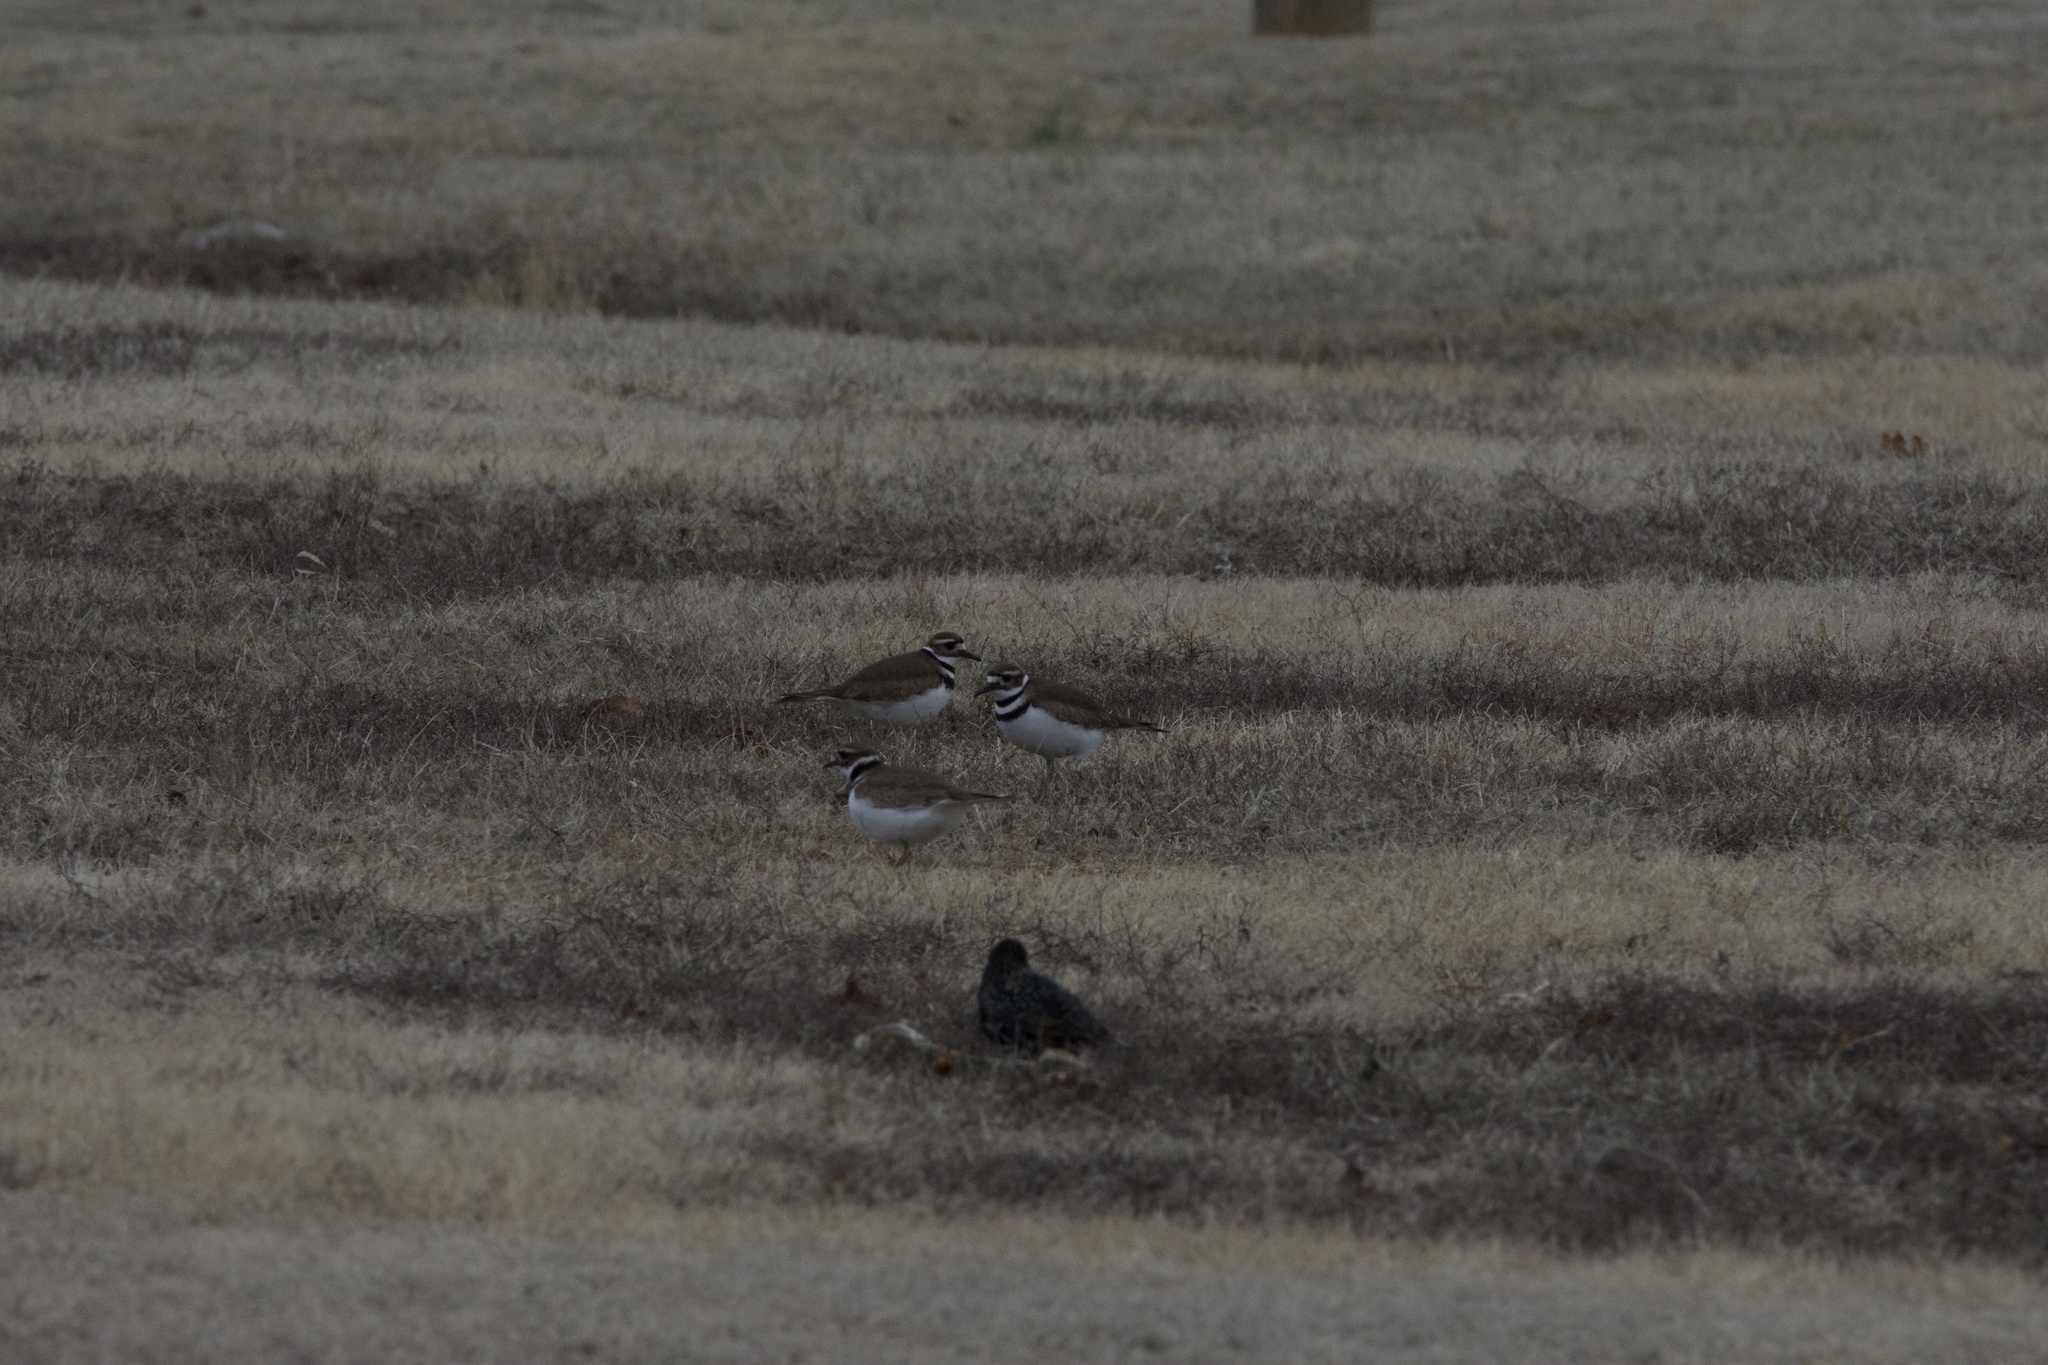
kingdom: Animalia
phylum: Chordata
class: Aves
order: Charadriiformes
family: Charadriidae
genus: Charadrius
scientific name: Charadrius vociferus
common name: Killdeer
